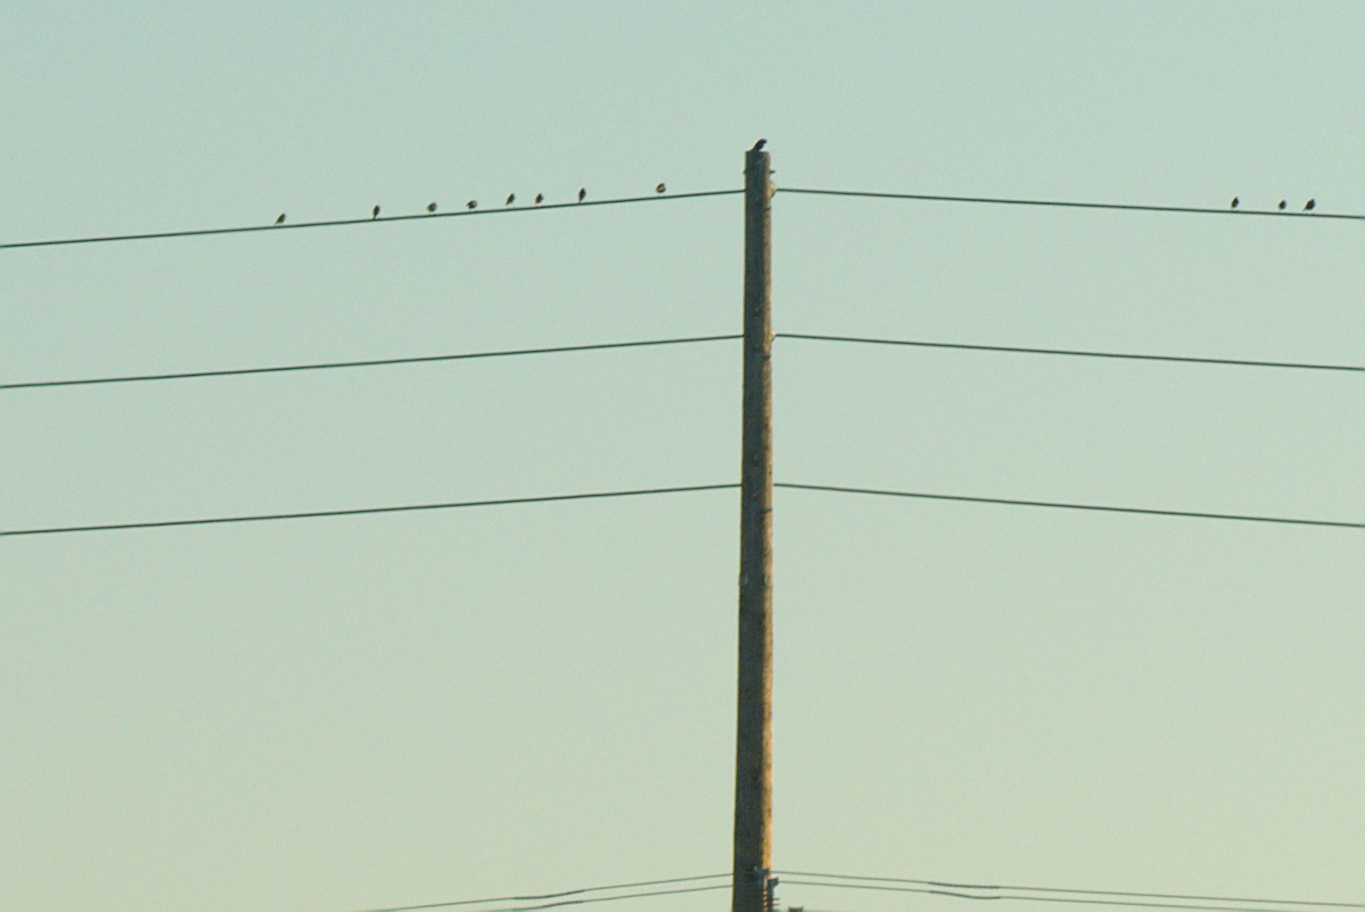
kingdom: Animalia
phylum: Chordata
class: Aves
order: Passeriformes
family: Sturnidae
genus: Sturnus
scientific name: Sturnus vulgaris
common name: Common starling
